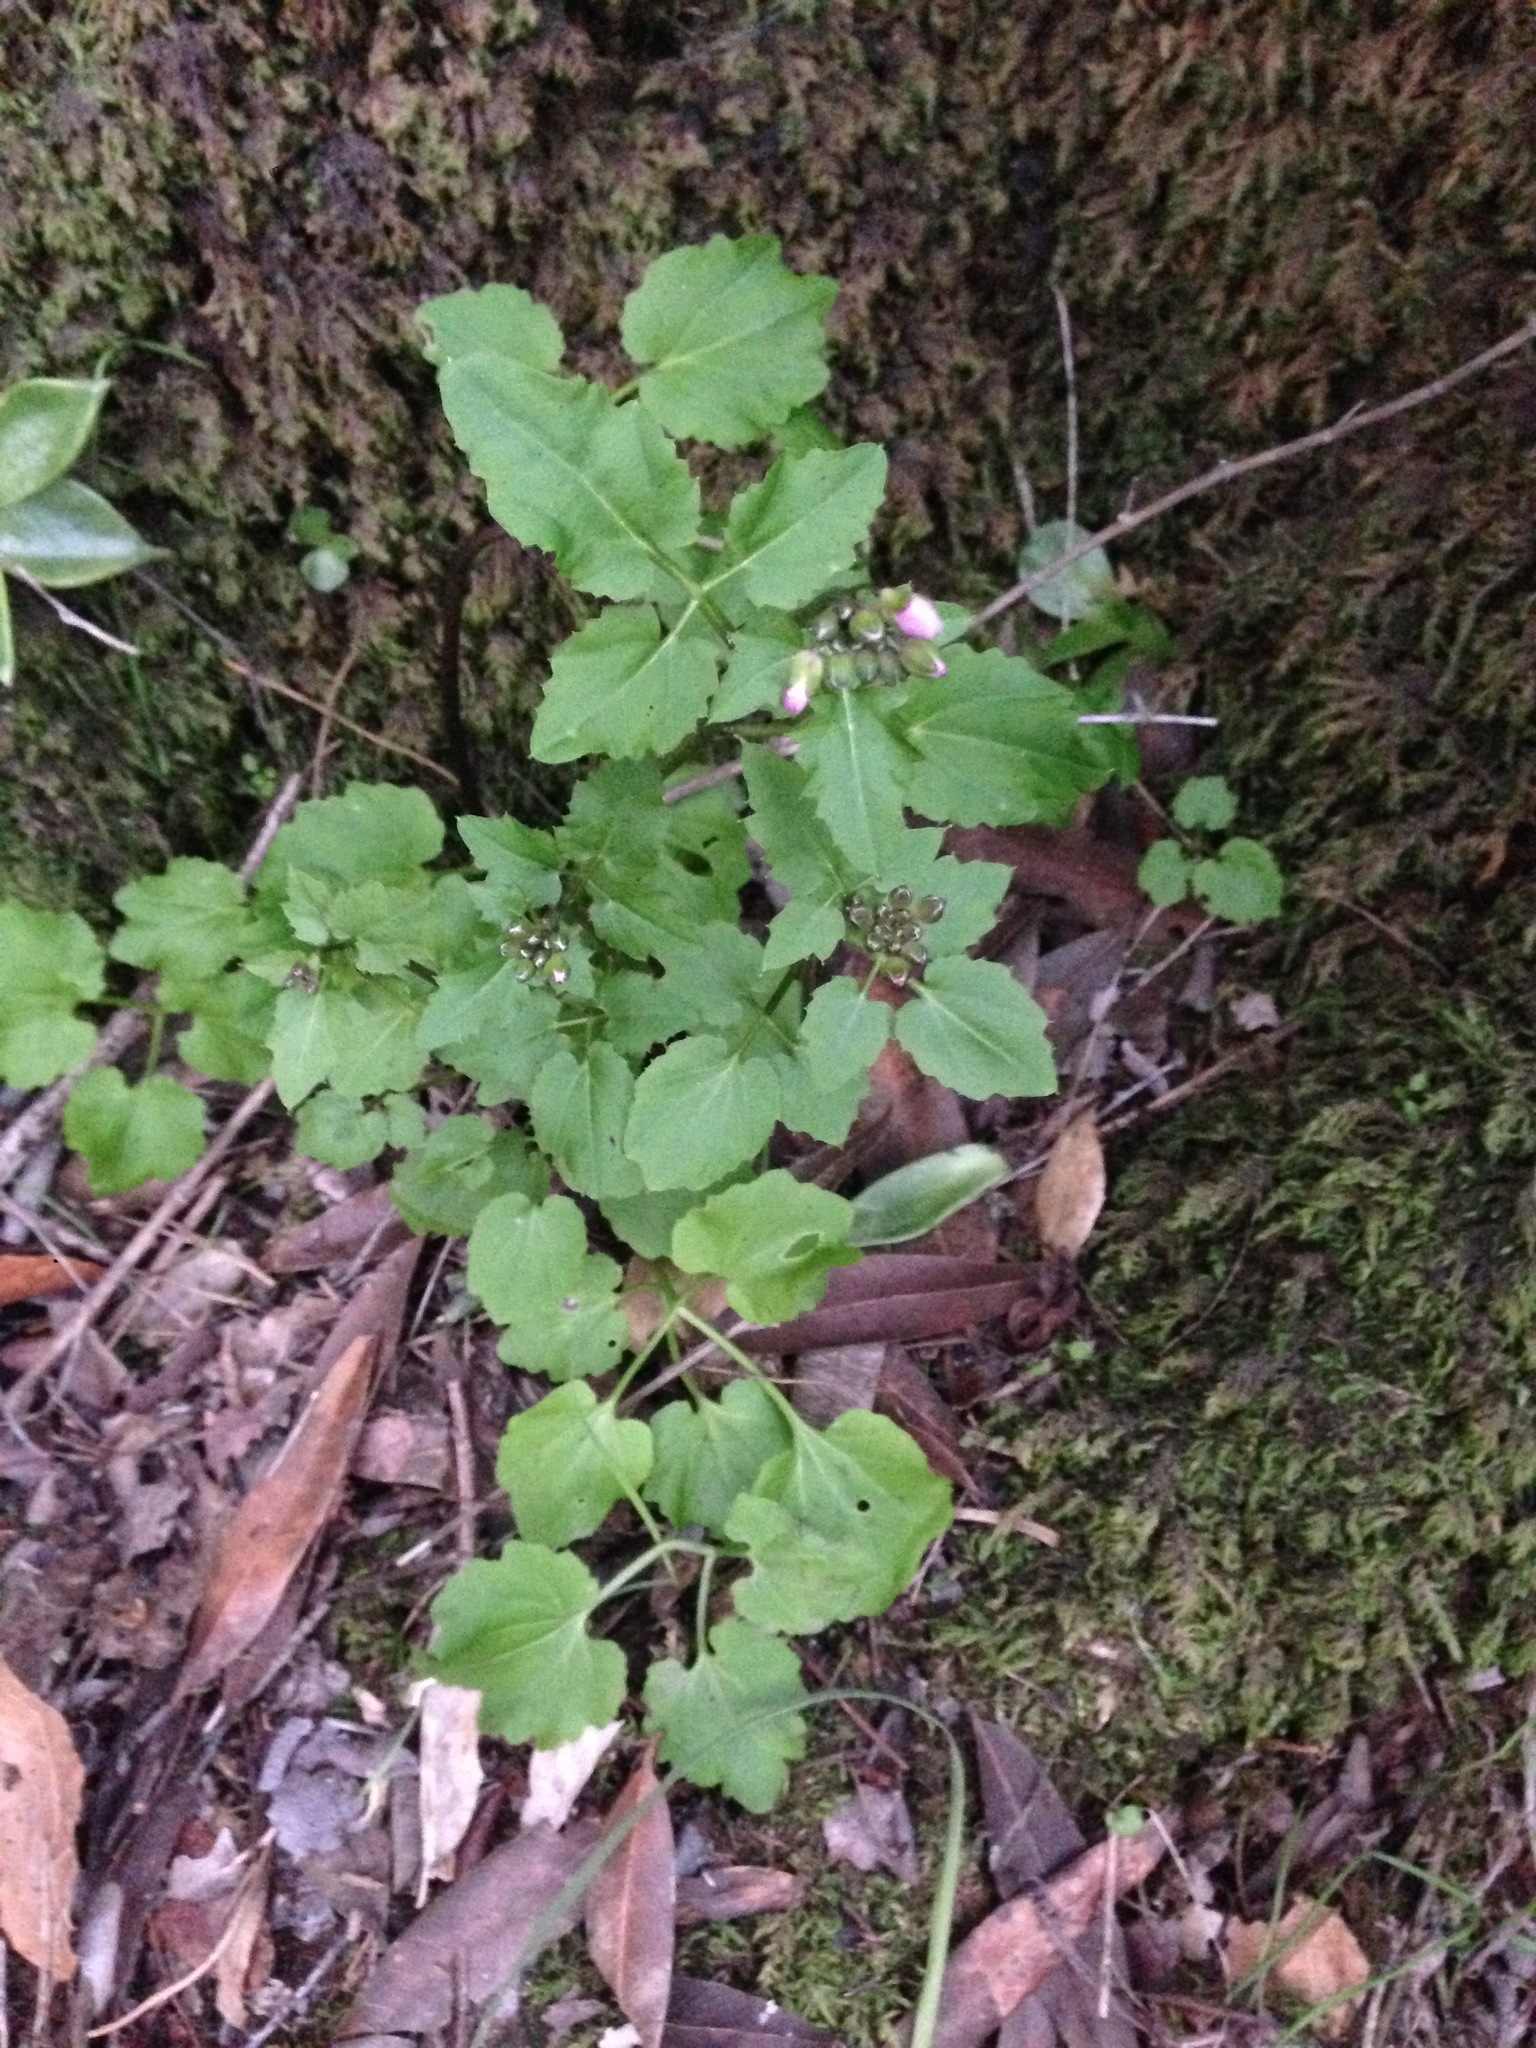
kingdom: Plantae
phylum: Tracheophyta
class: Magnoliopsida
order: Brassicales
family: Brassicaceae
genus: Cardamine
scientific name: Cardamine californica
